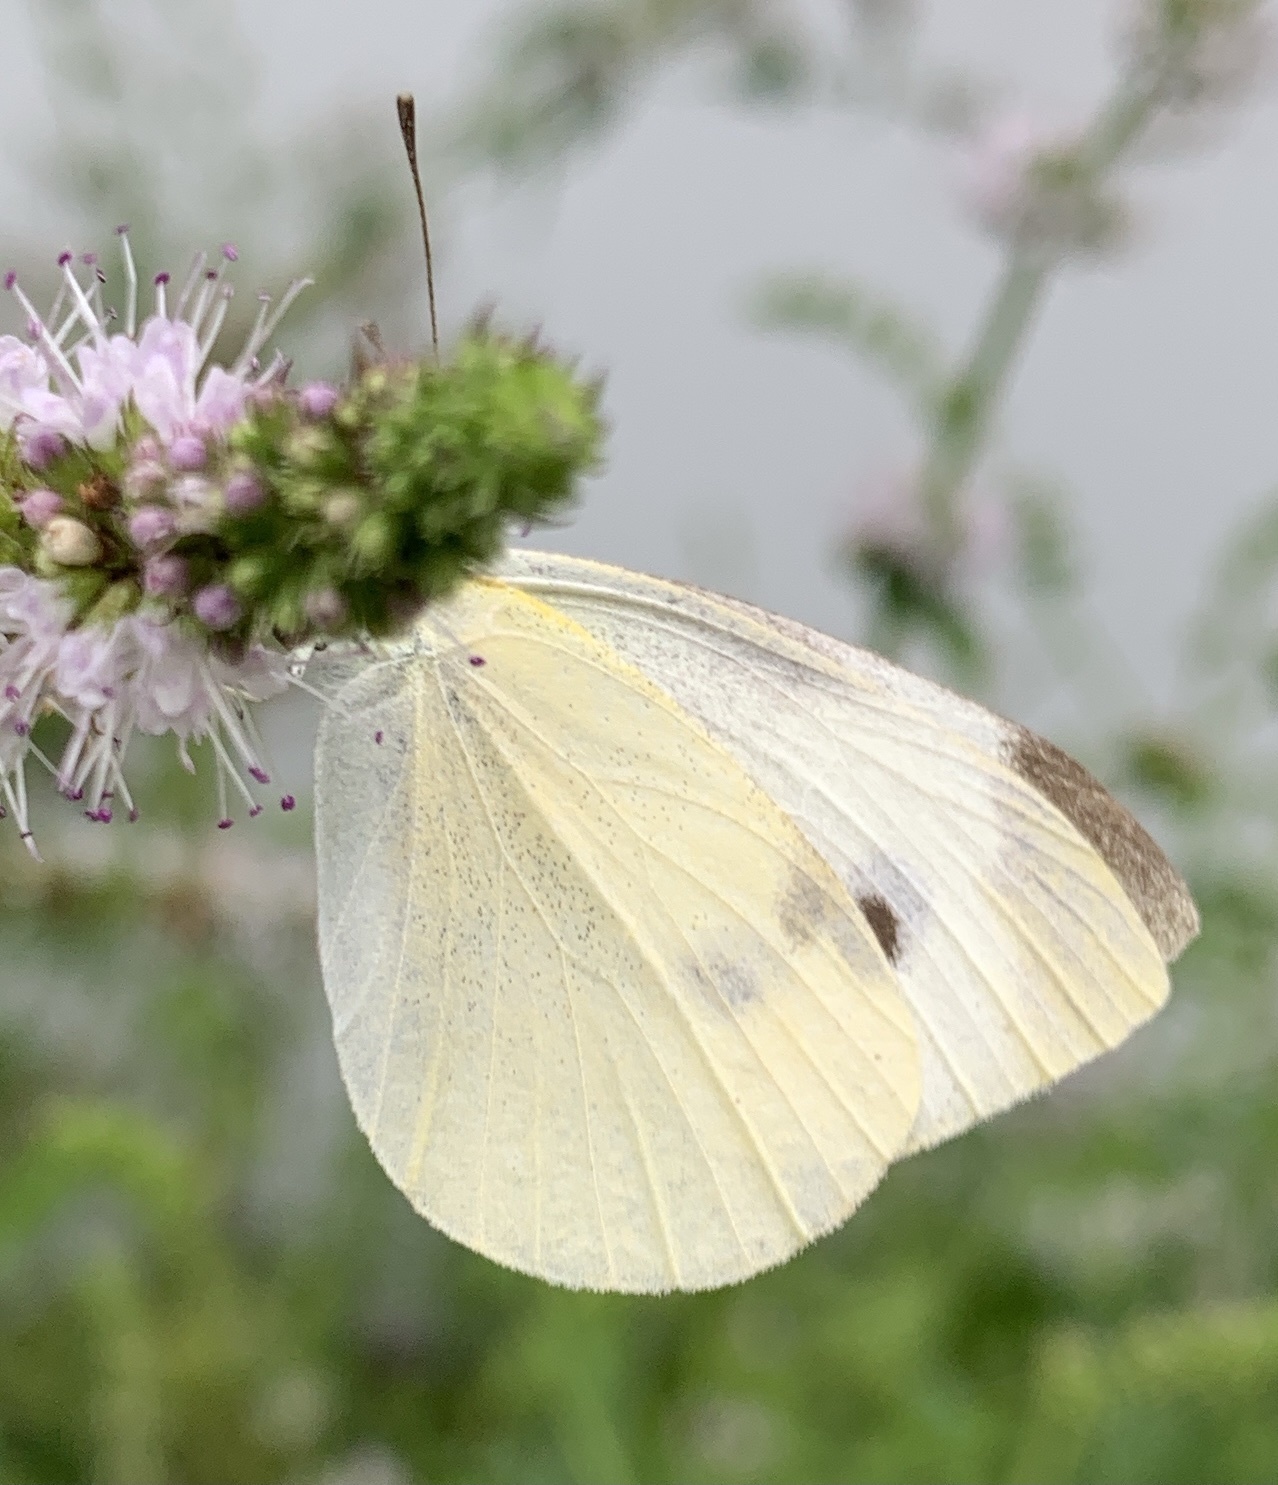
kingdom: Animalia
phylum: Arthropoda
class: Insecta
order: Lepidoptera
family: Pieridae
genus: Pieris
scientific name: Pieris rapae
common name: Small white
